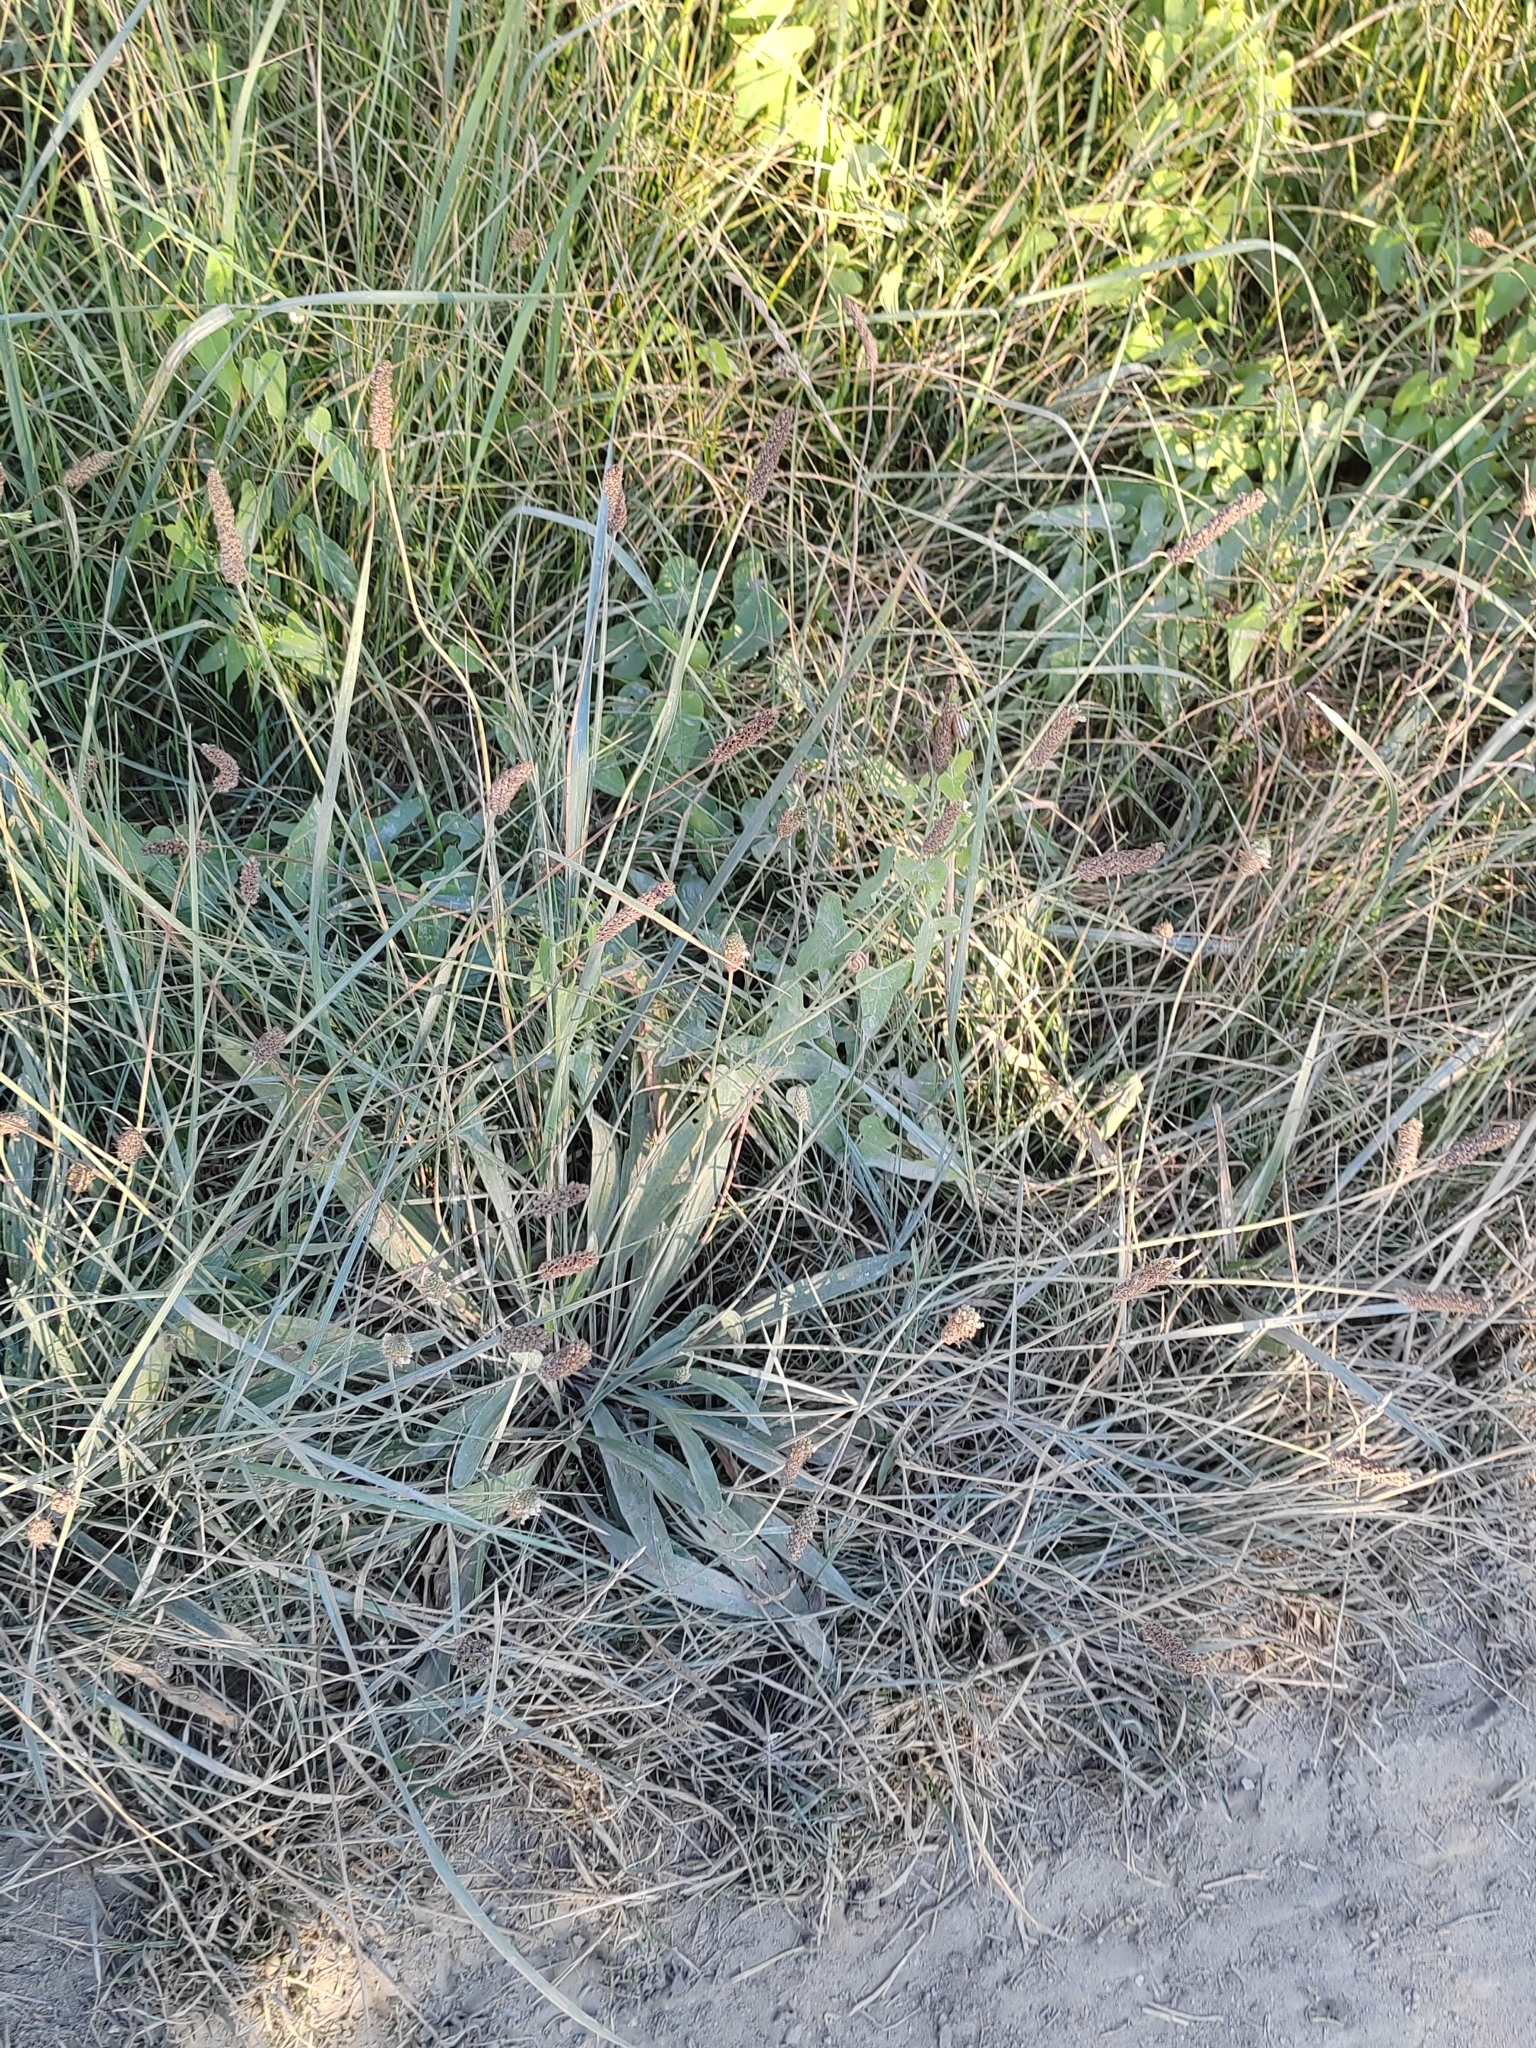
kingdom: Plantae
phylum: Tracheophyta
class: Magnoliopsida
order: Lamiales
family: Plantaginaceae
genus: Plantago
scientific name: Plantago lanceolata
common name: Ribwort plantain
